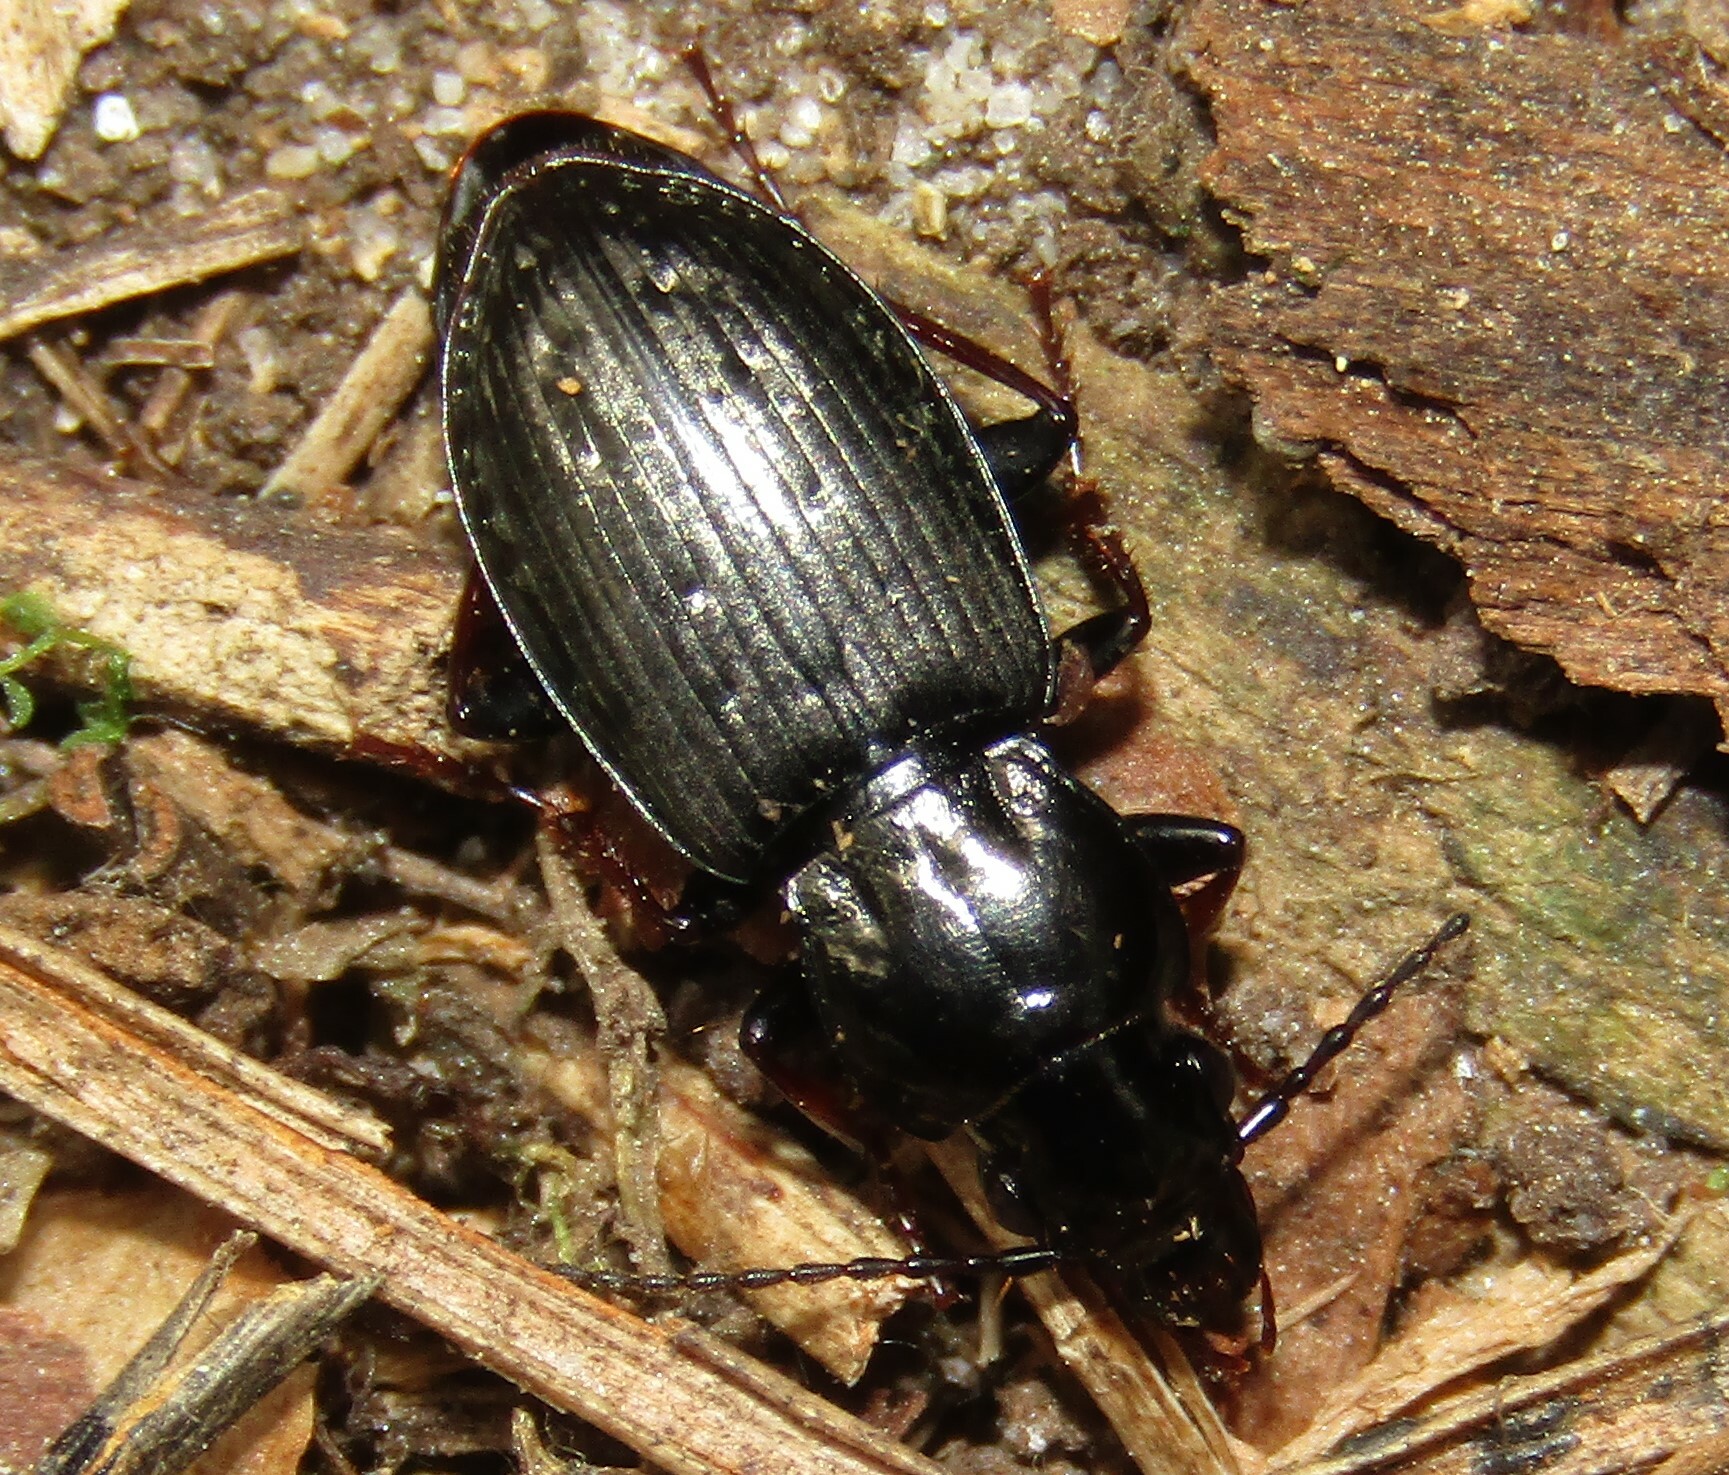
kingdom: Animalia
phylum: Arthropoda
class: Insecta
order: Coleoptera
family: Carabidae
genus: Pterostichus
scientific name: Pterostichus oblongopunctatus
